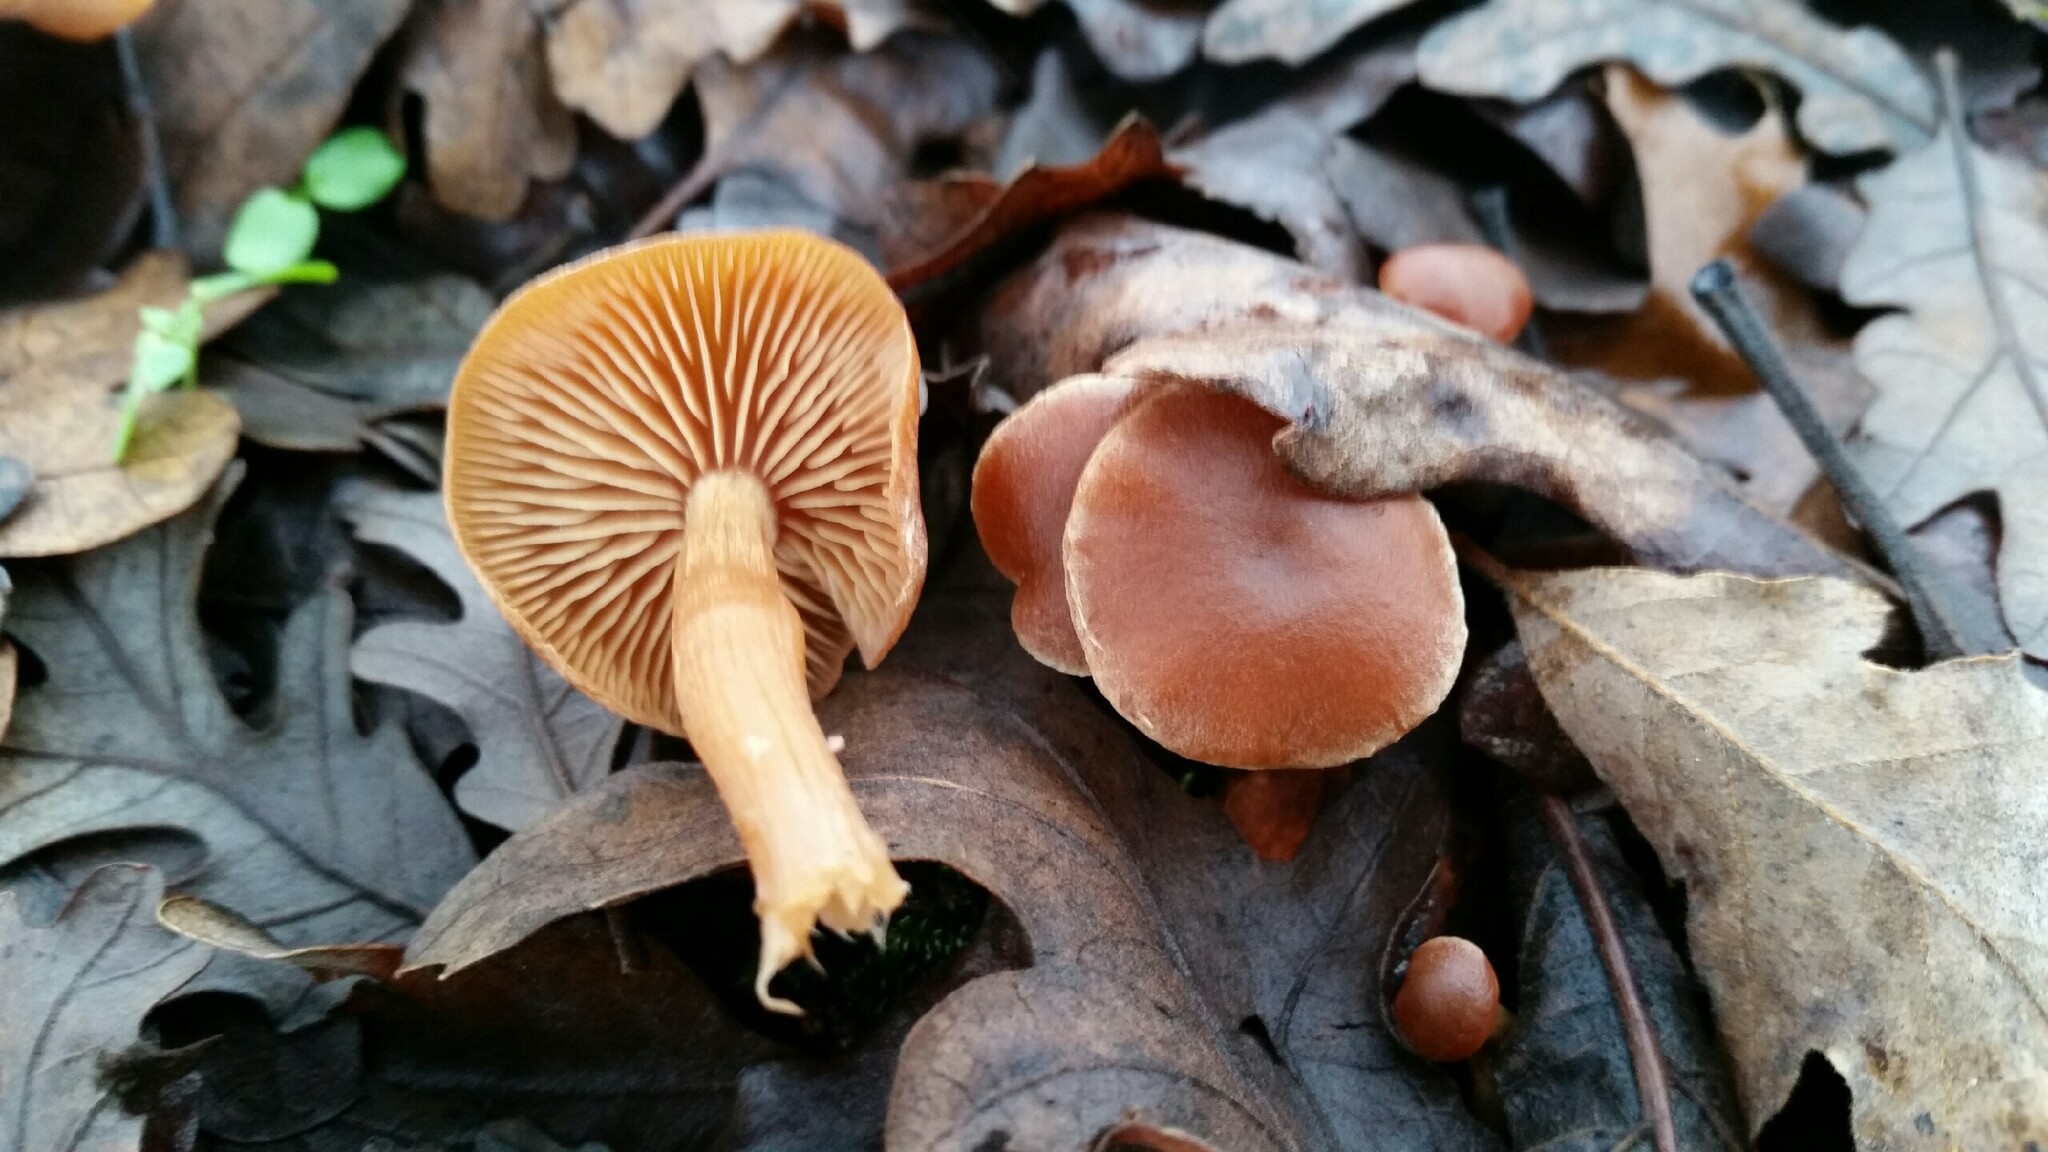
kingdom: Fungi
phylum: Basidiomycota
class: Agaricomycetes
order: Agaricales
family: Tubariaceae
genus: Tubaria
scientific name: Tubaria furfuracea
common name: Scurfy twiglet
